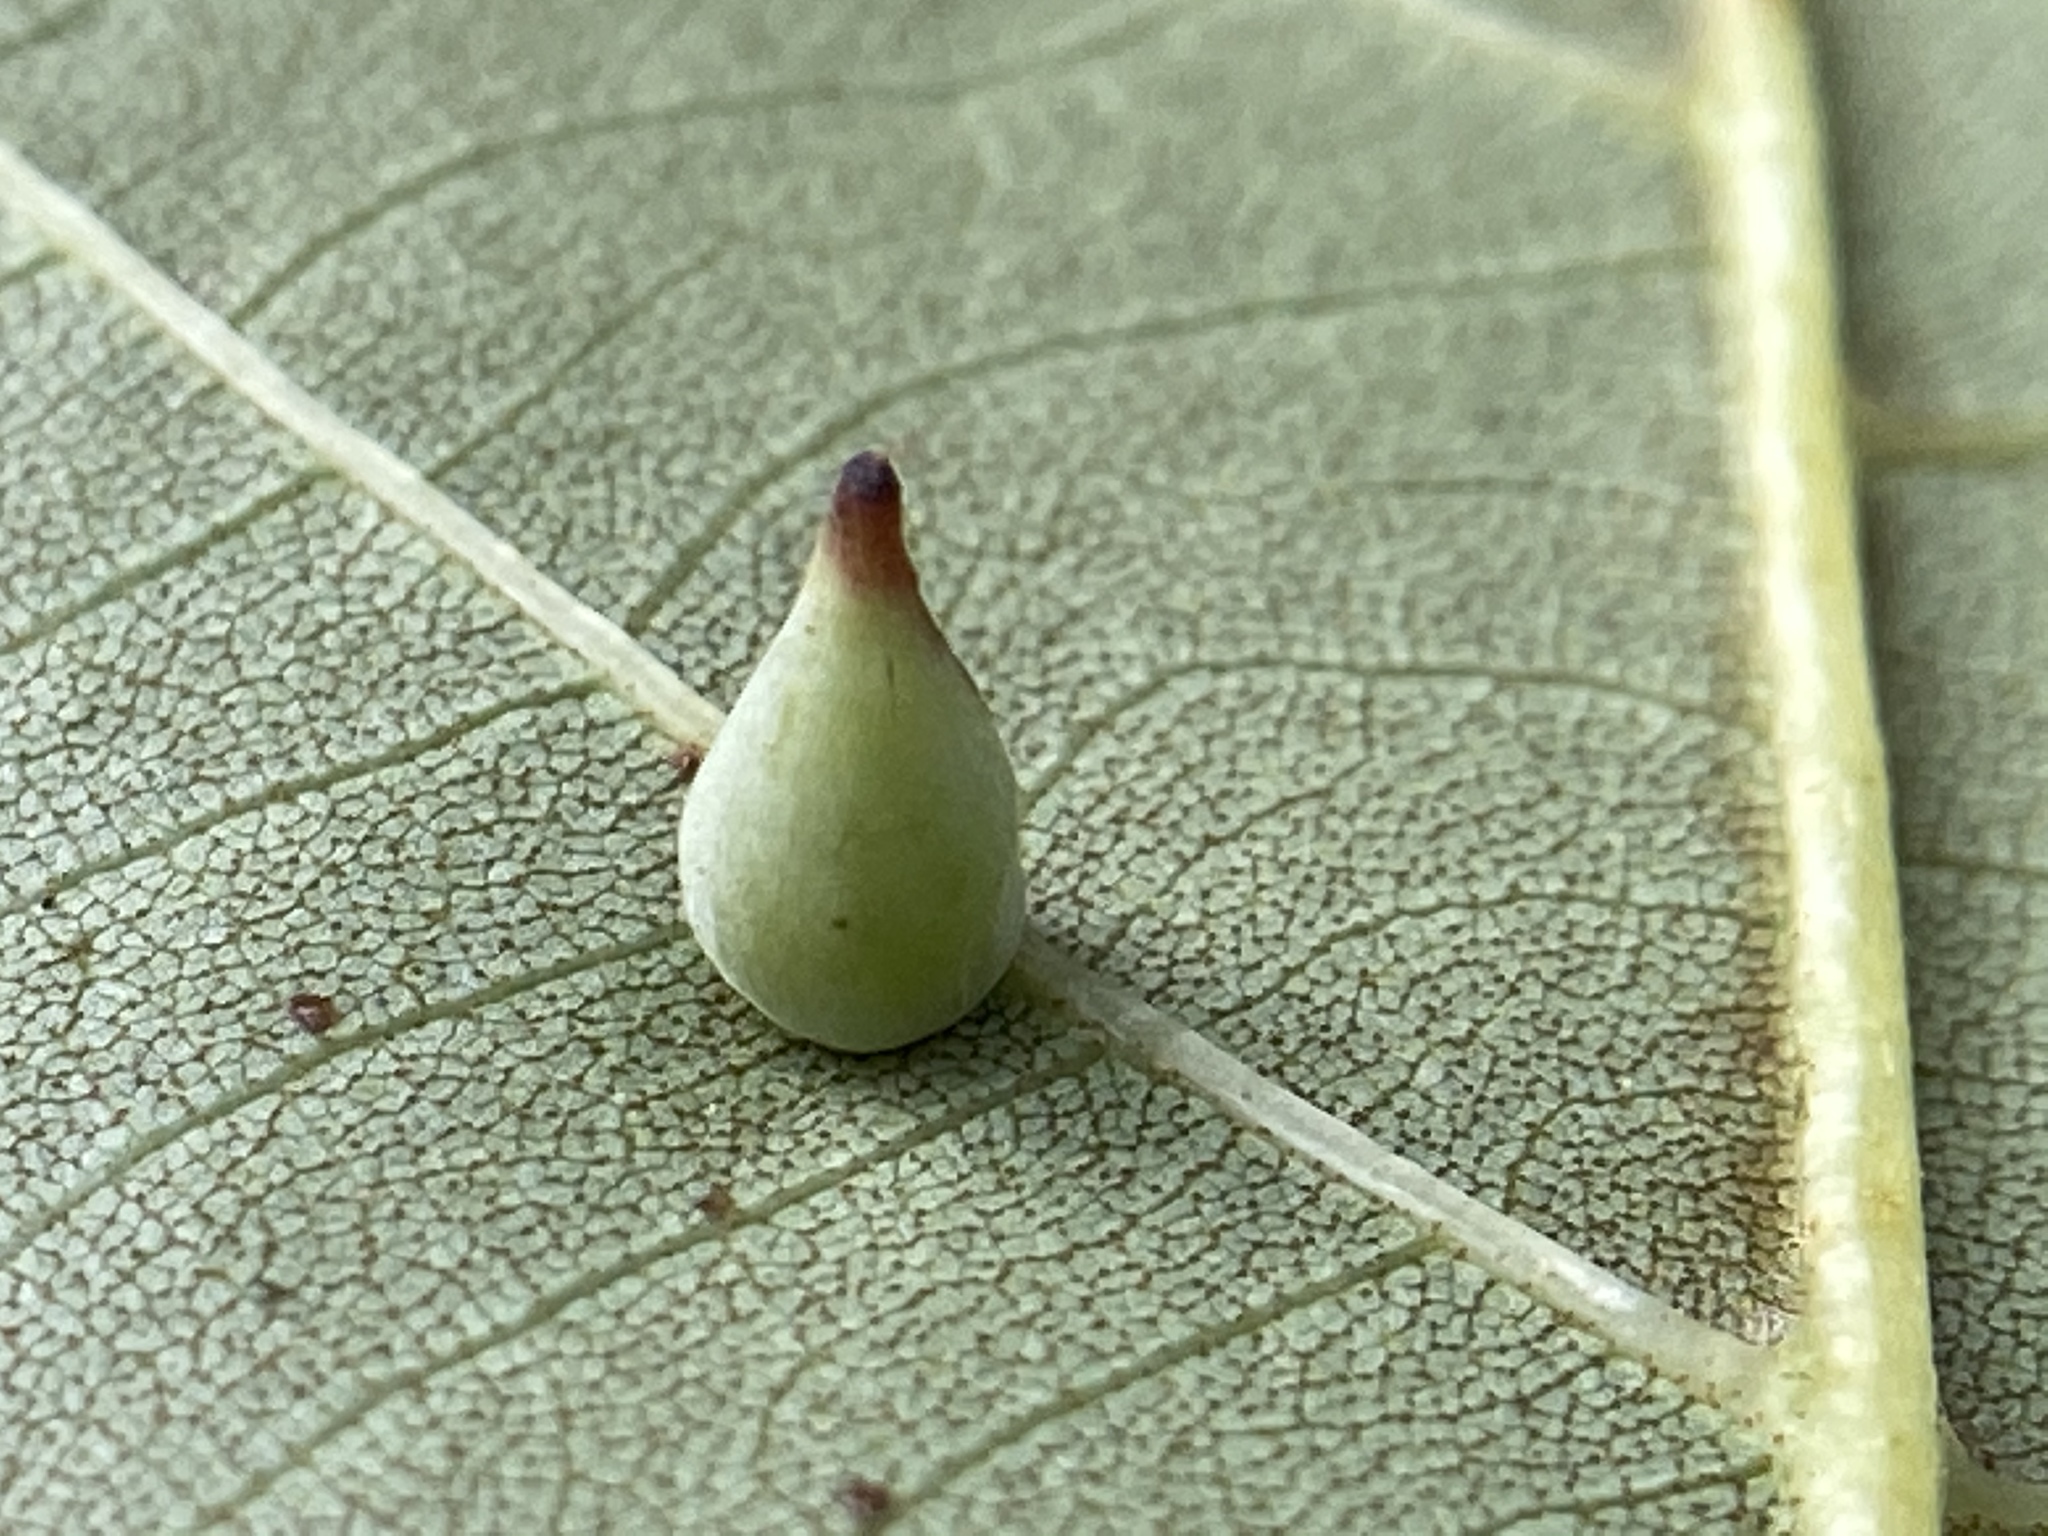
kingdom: Animalia
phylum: Arthropoda
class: Insecta
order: Diptera
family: Cecidomyiidae
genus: Caryomyia
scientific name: Caryomyia caryaecola
